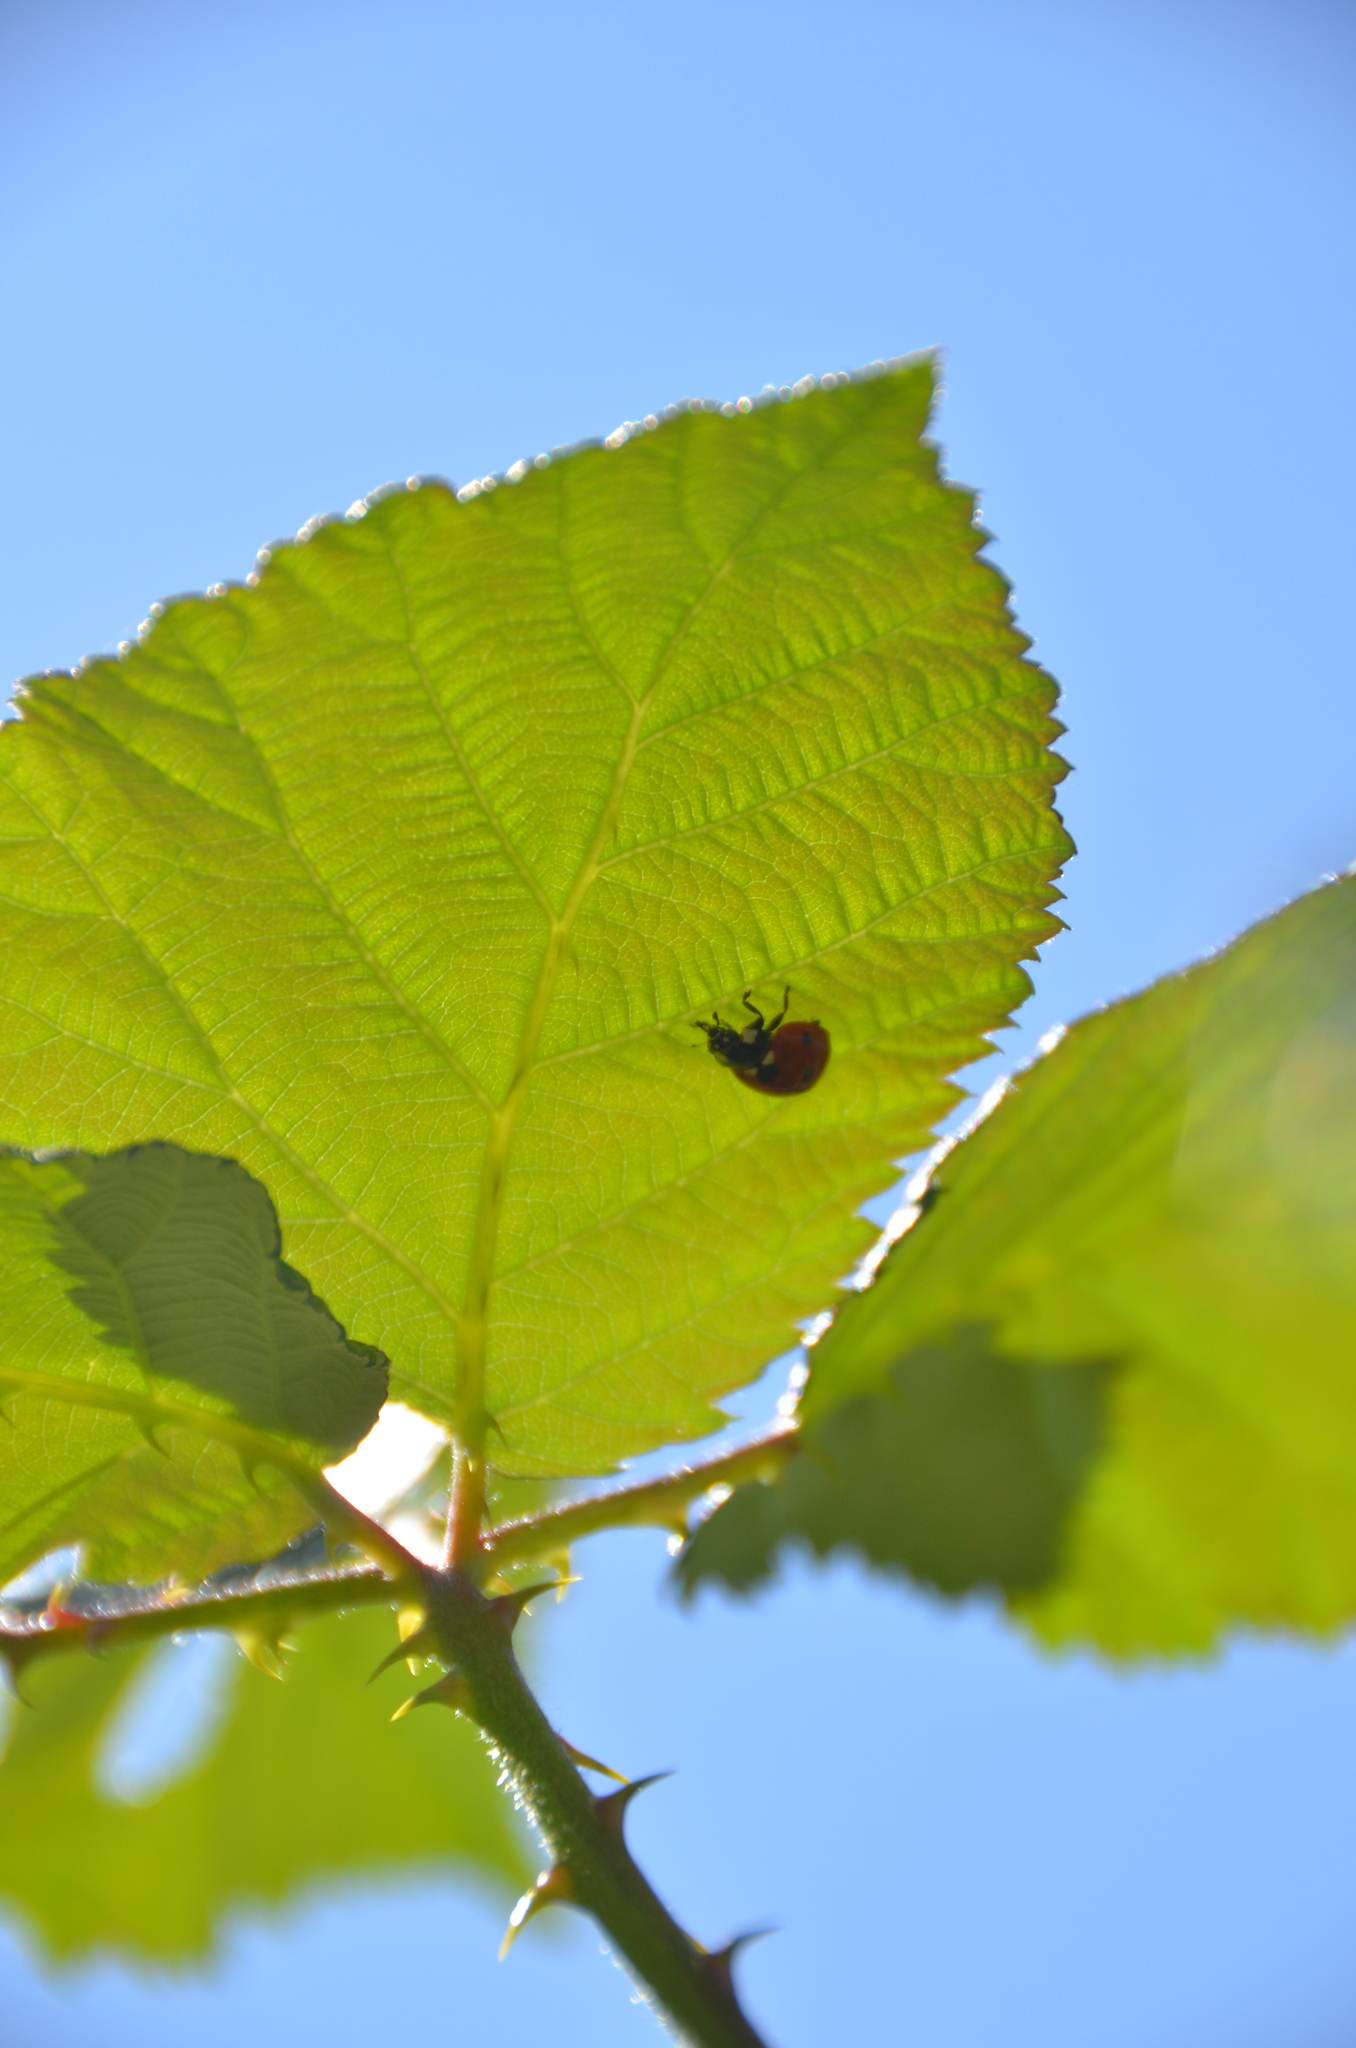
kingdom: Animalia
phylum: Arthropoda
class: Insecta
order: Coleoptera
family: Coccinellidae
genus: Coccinella
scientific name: Coccinella septempunctata
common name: Sevenspotted lady beetle
